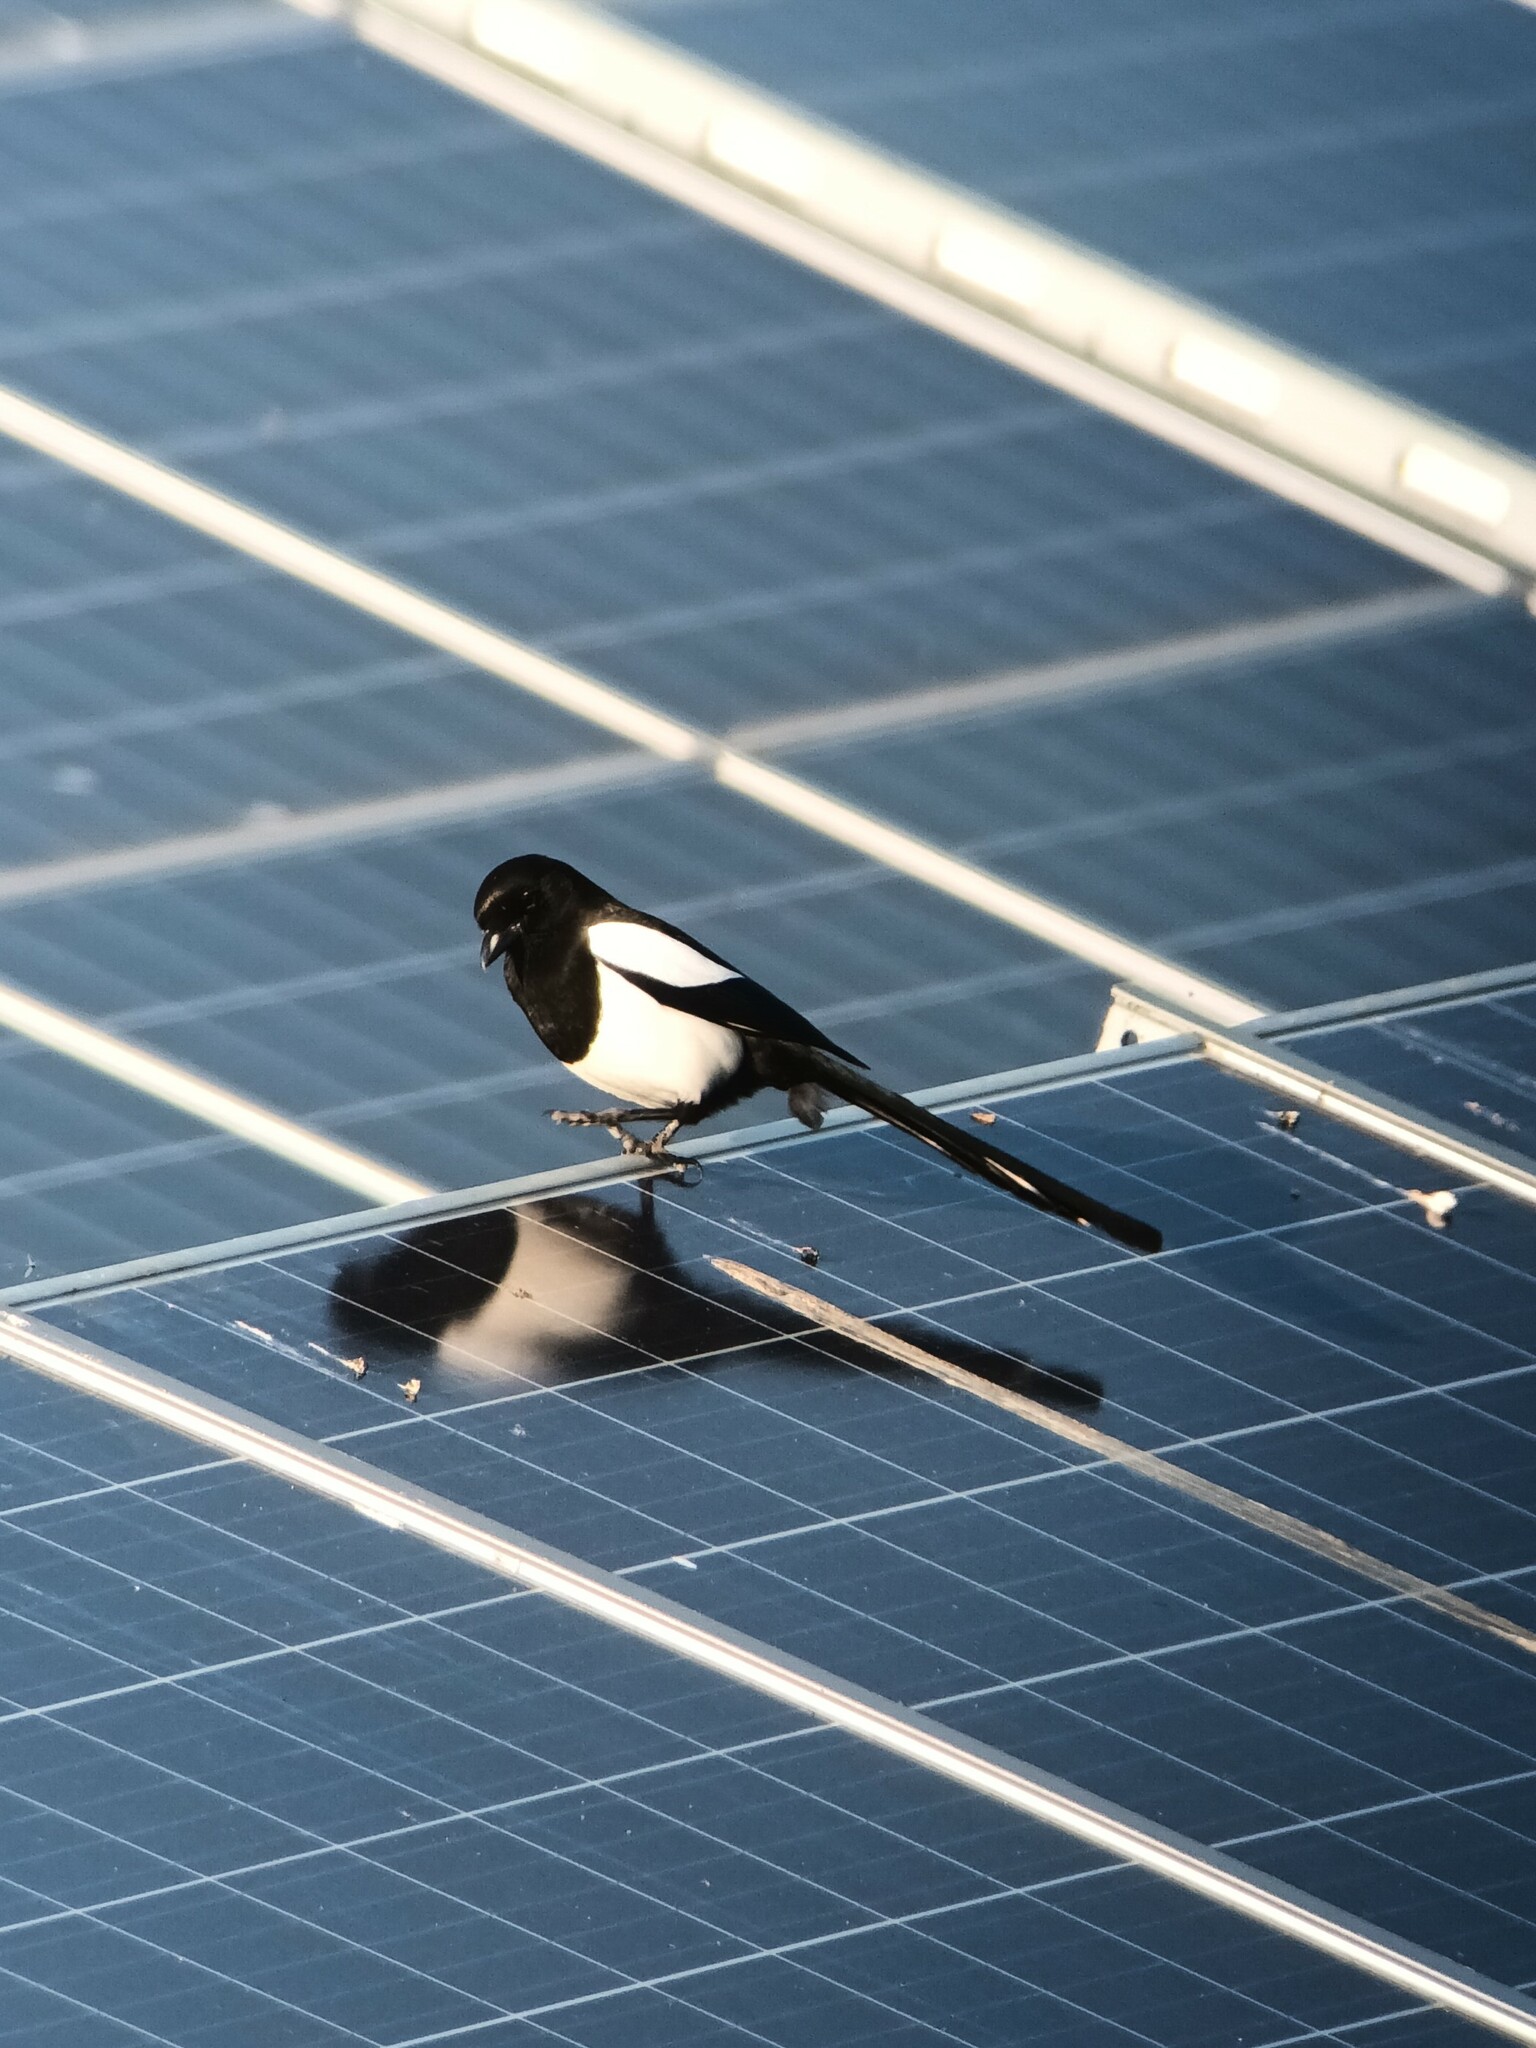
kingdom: Animalia
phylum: Chordata
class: Aves
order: Passeriformes
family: Corvidae
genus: Pica
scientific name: Pica pica
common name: Eurasian magpie
